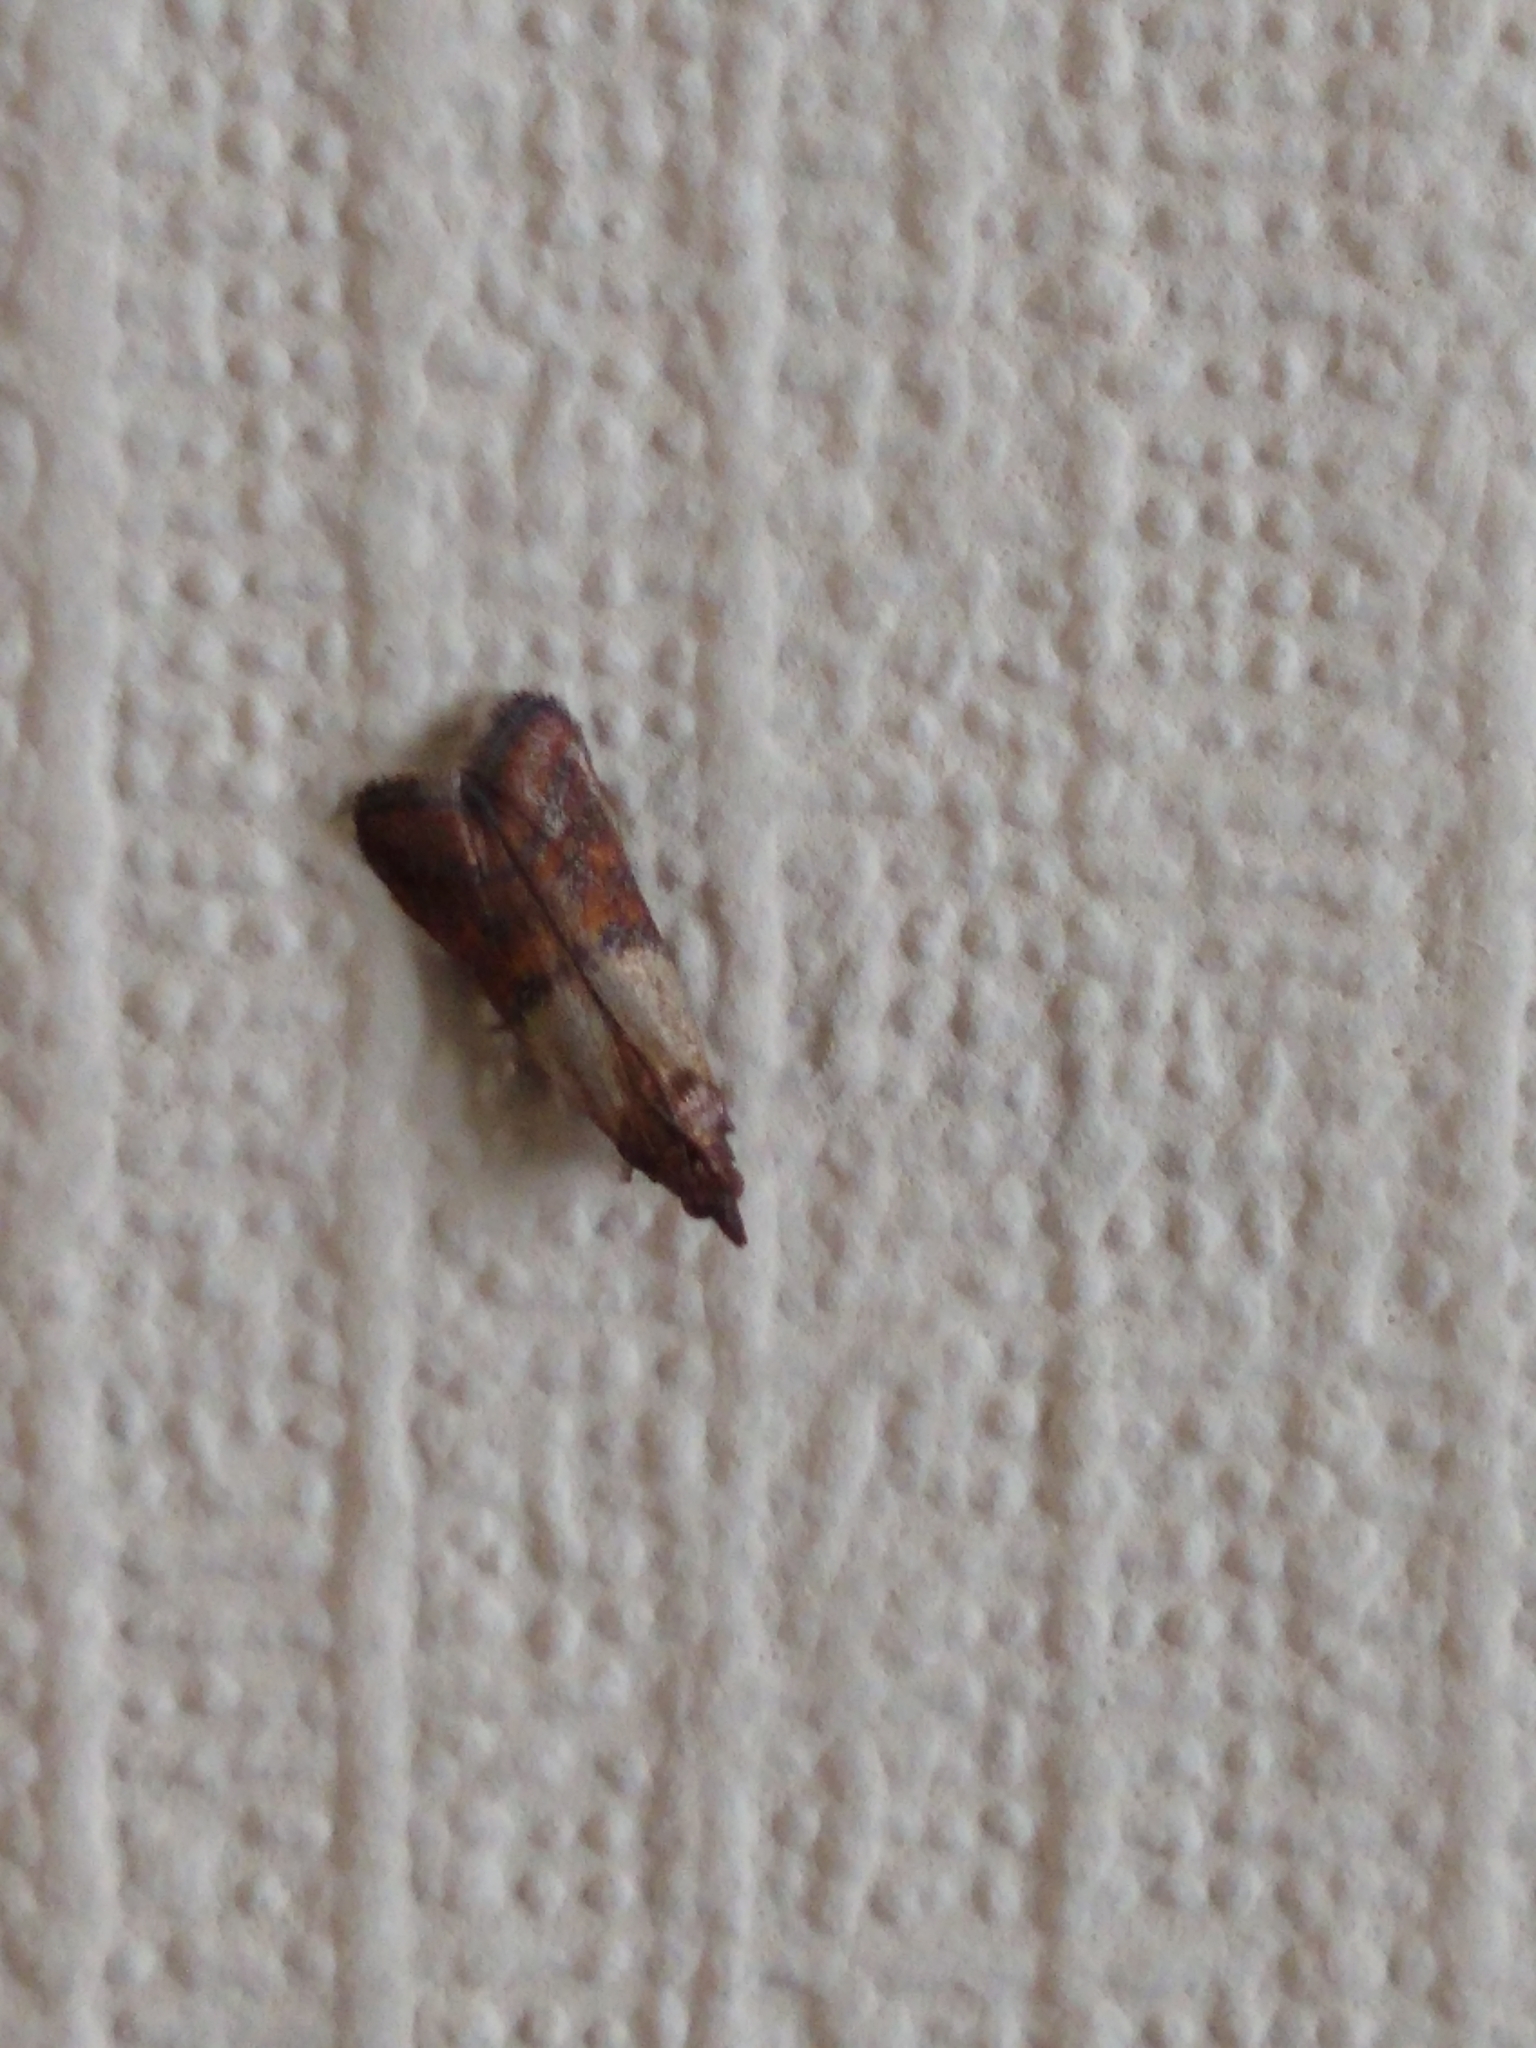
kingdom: Animalia
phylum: Arthropoda
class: Insecta
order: Lepidoptera
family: Pyralidae
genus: Plodia
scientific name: Plodia interpunctella
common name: Indian meal moth
